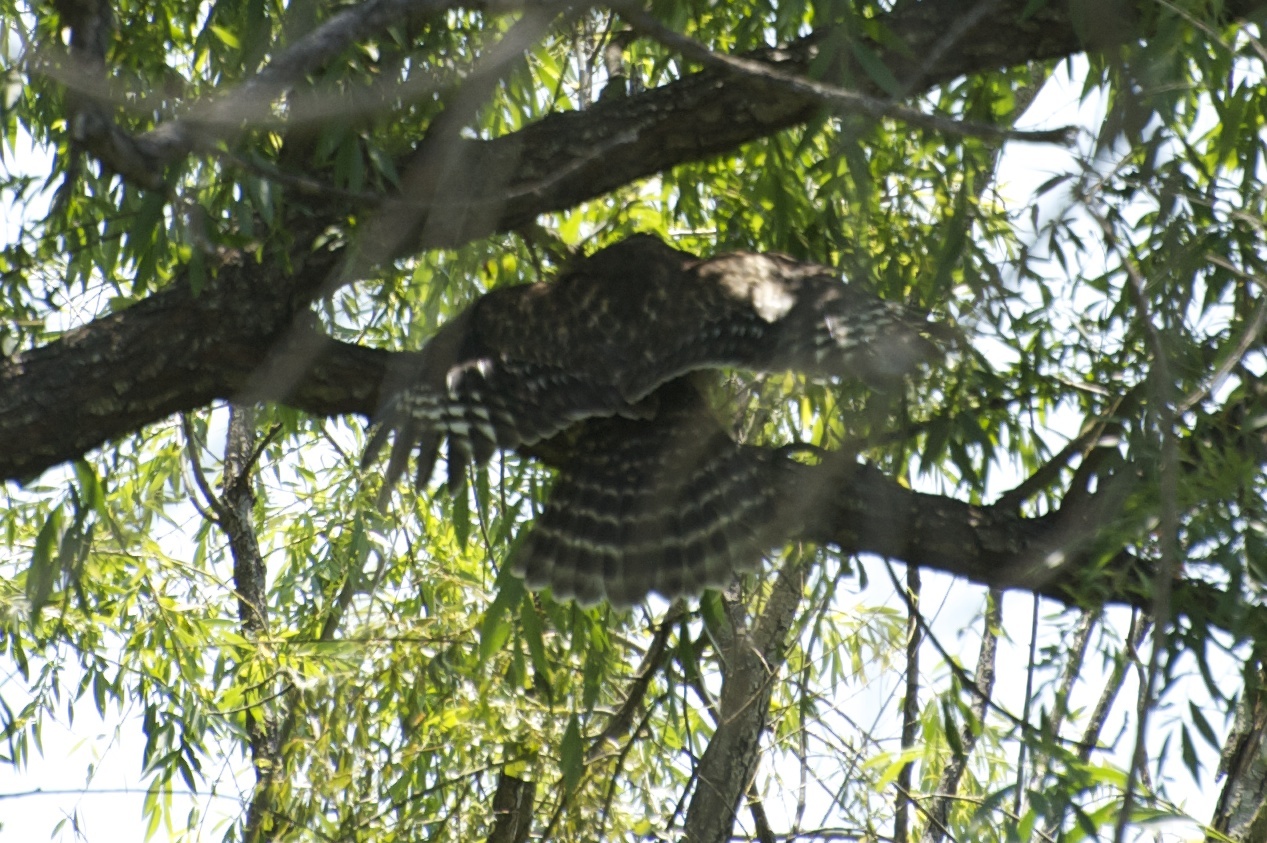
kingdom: Animalia
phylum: Chordata
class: Aves
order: Accipitriformes
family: Accipitridae
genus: Buteo
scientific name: Buteo lineatus
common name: Red-shouldered hawk
